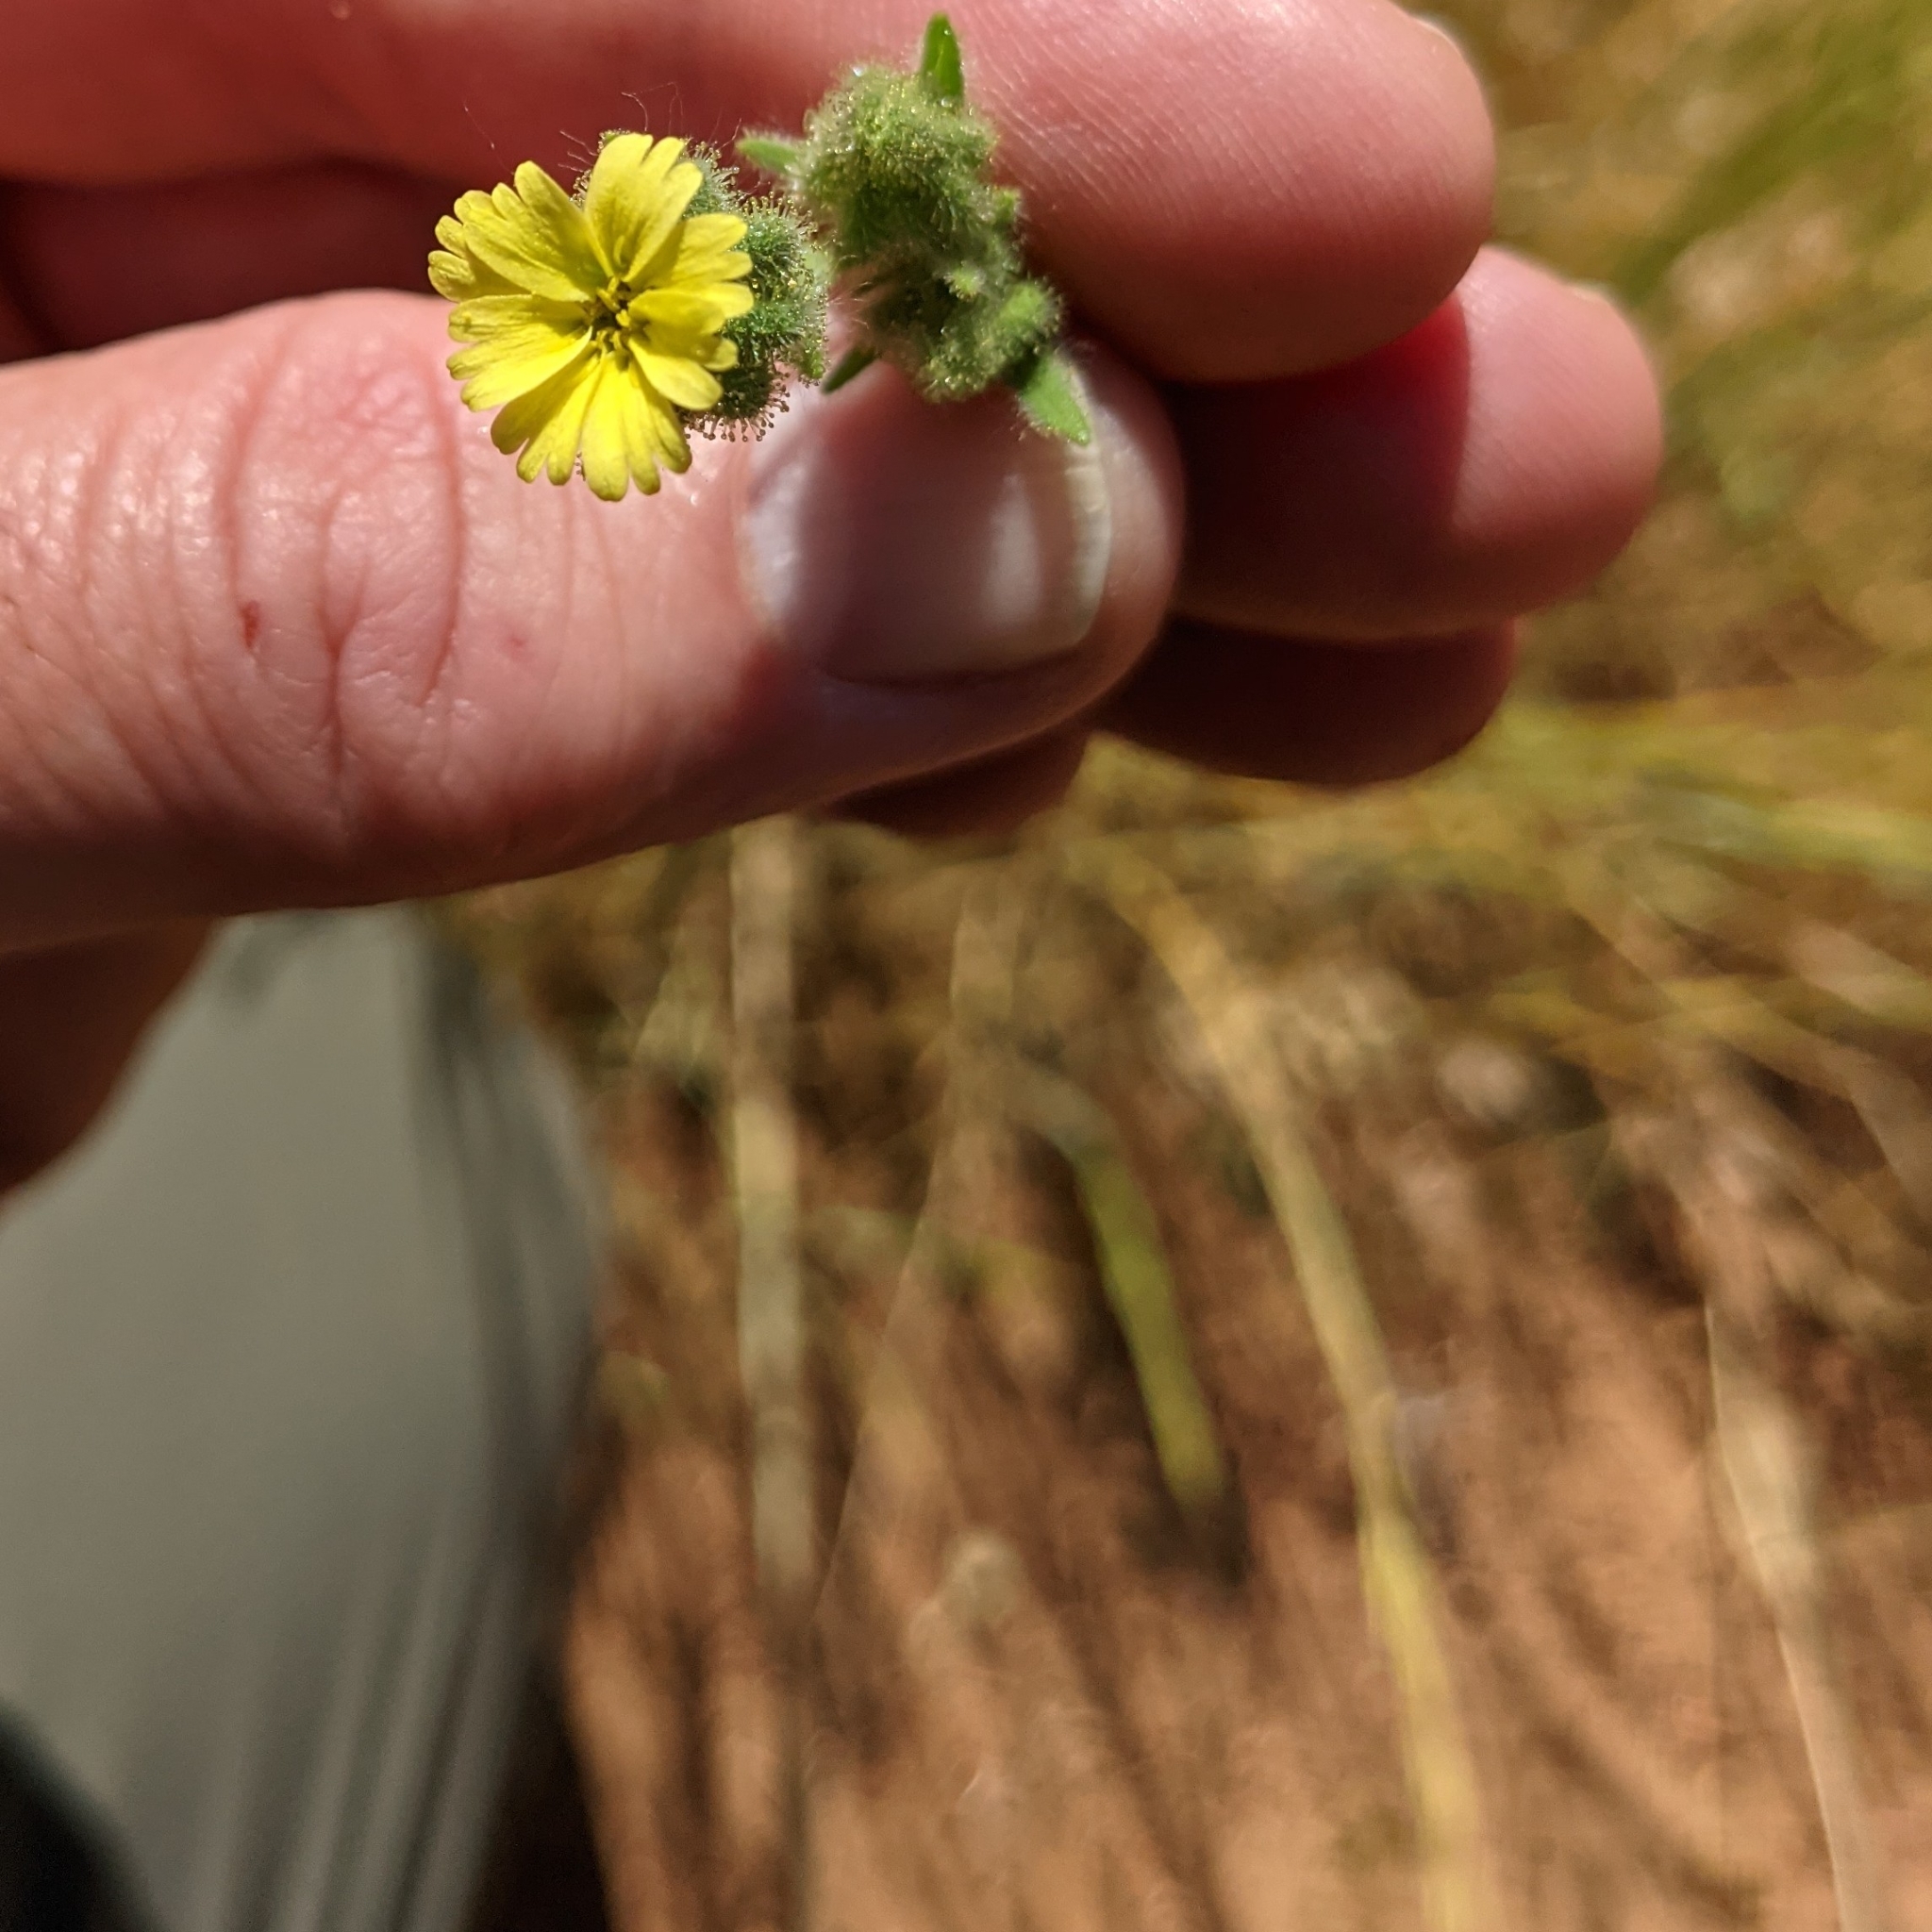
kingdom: Plantae
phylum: Tracheophyta
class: Magnoliopsida
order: Asterales
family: Asteraceae
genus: Madia
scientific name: Madia gracilis
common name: Grassy tarweed
